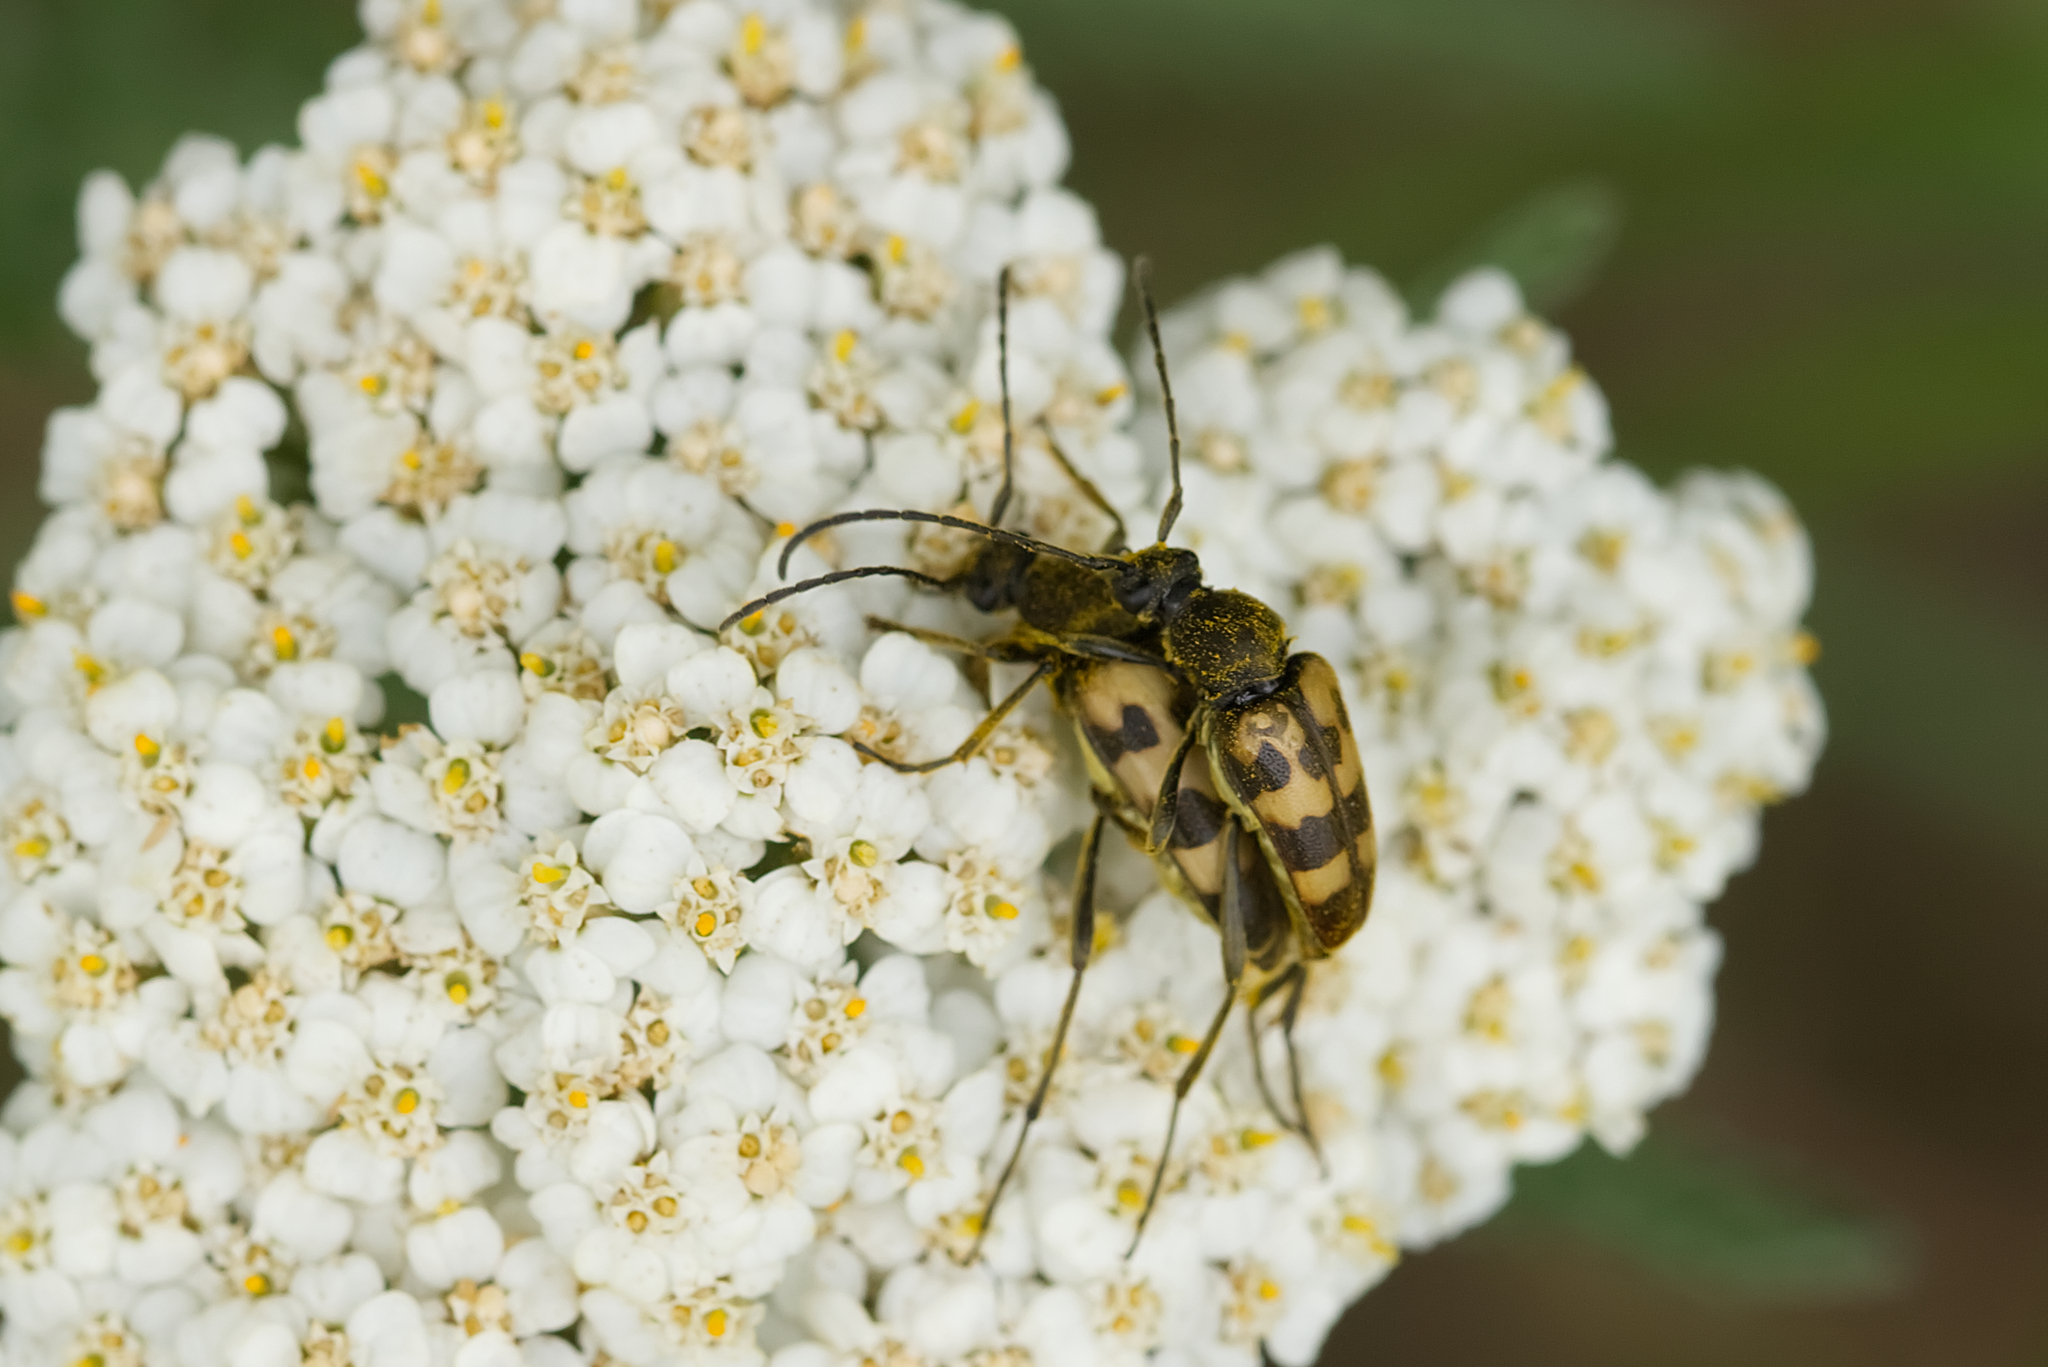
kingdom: Animalia
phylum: Arthropoda
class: Insecta
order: Coleoptera
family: Cerambycidae
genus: Pachytodes
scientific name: Pachytodes
